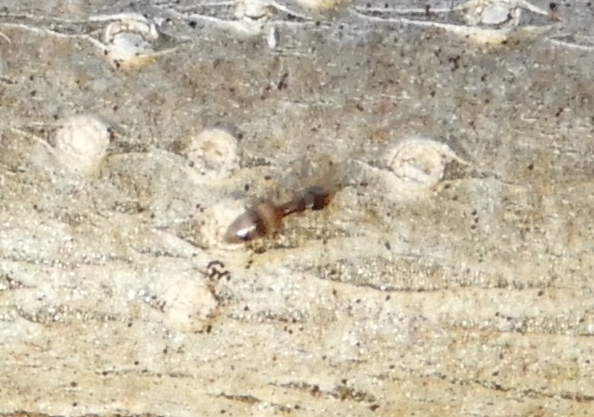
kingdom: Animalia
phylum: Arthropoda
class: Insecta
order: Hymenoptera
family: Formicidae
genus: Brachymyrmex
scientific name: Brachymyrmex
